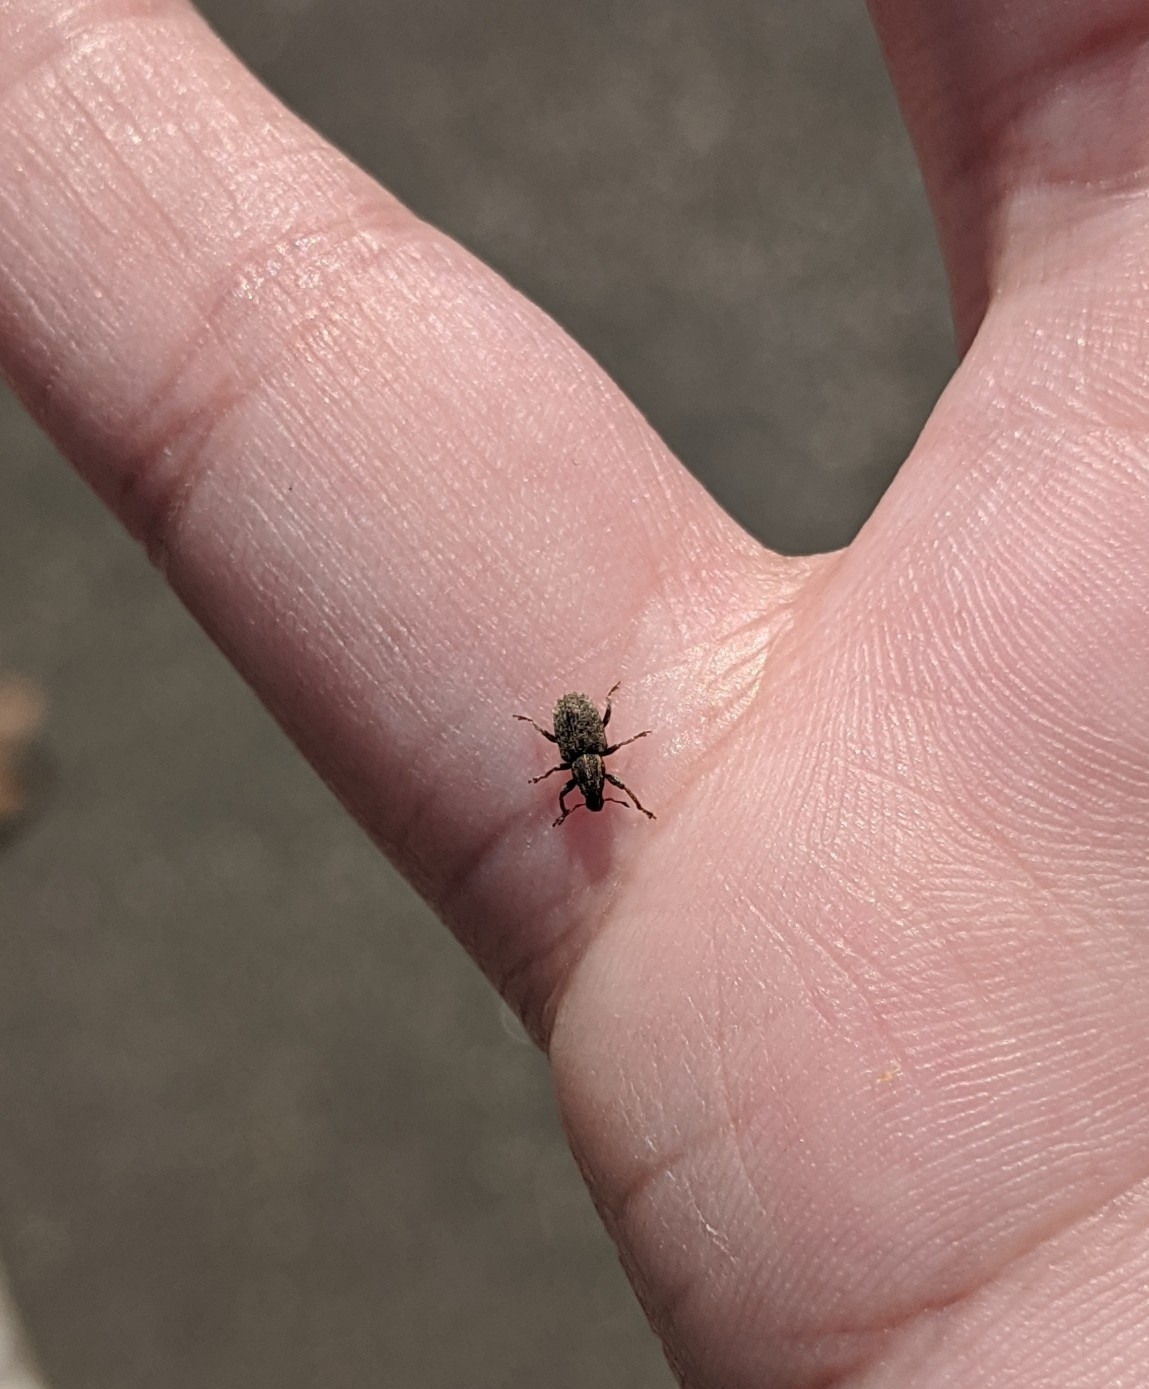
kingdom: Animalia
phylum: Arthropoda
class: Insecta
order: Coleoptera
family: Curculionidae
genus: Sitona
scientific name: Sitona hispidulus
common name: Clover weevil
